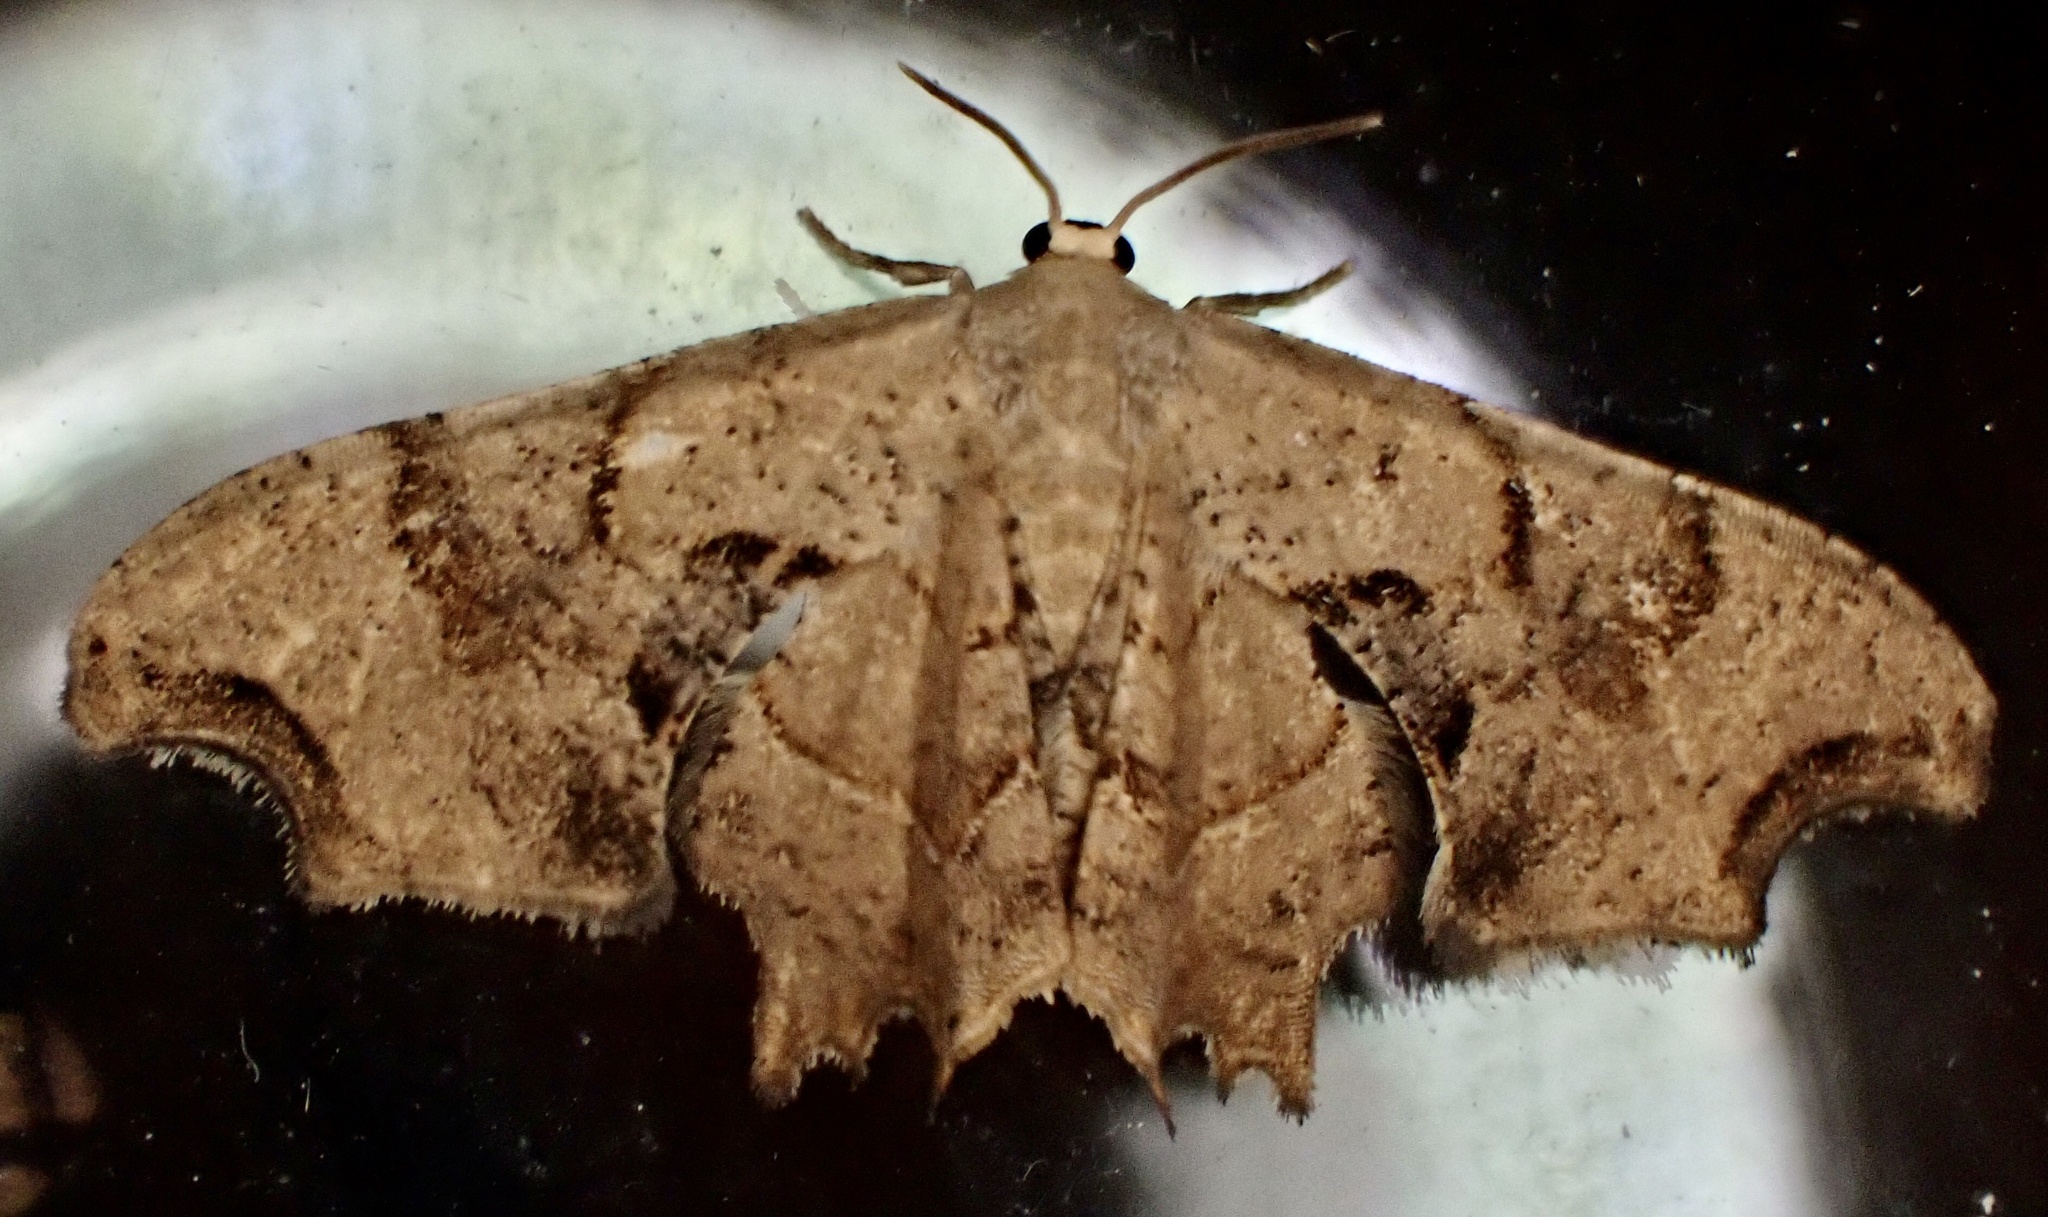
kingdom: Animalia
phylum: Arthropoda
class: Insecta
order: Lepidoptera
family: Uraniidae
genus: Epiplema
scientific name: Epiplema Calledapteryx dryopterata
